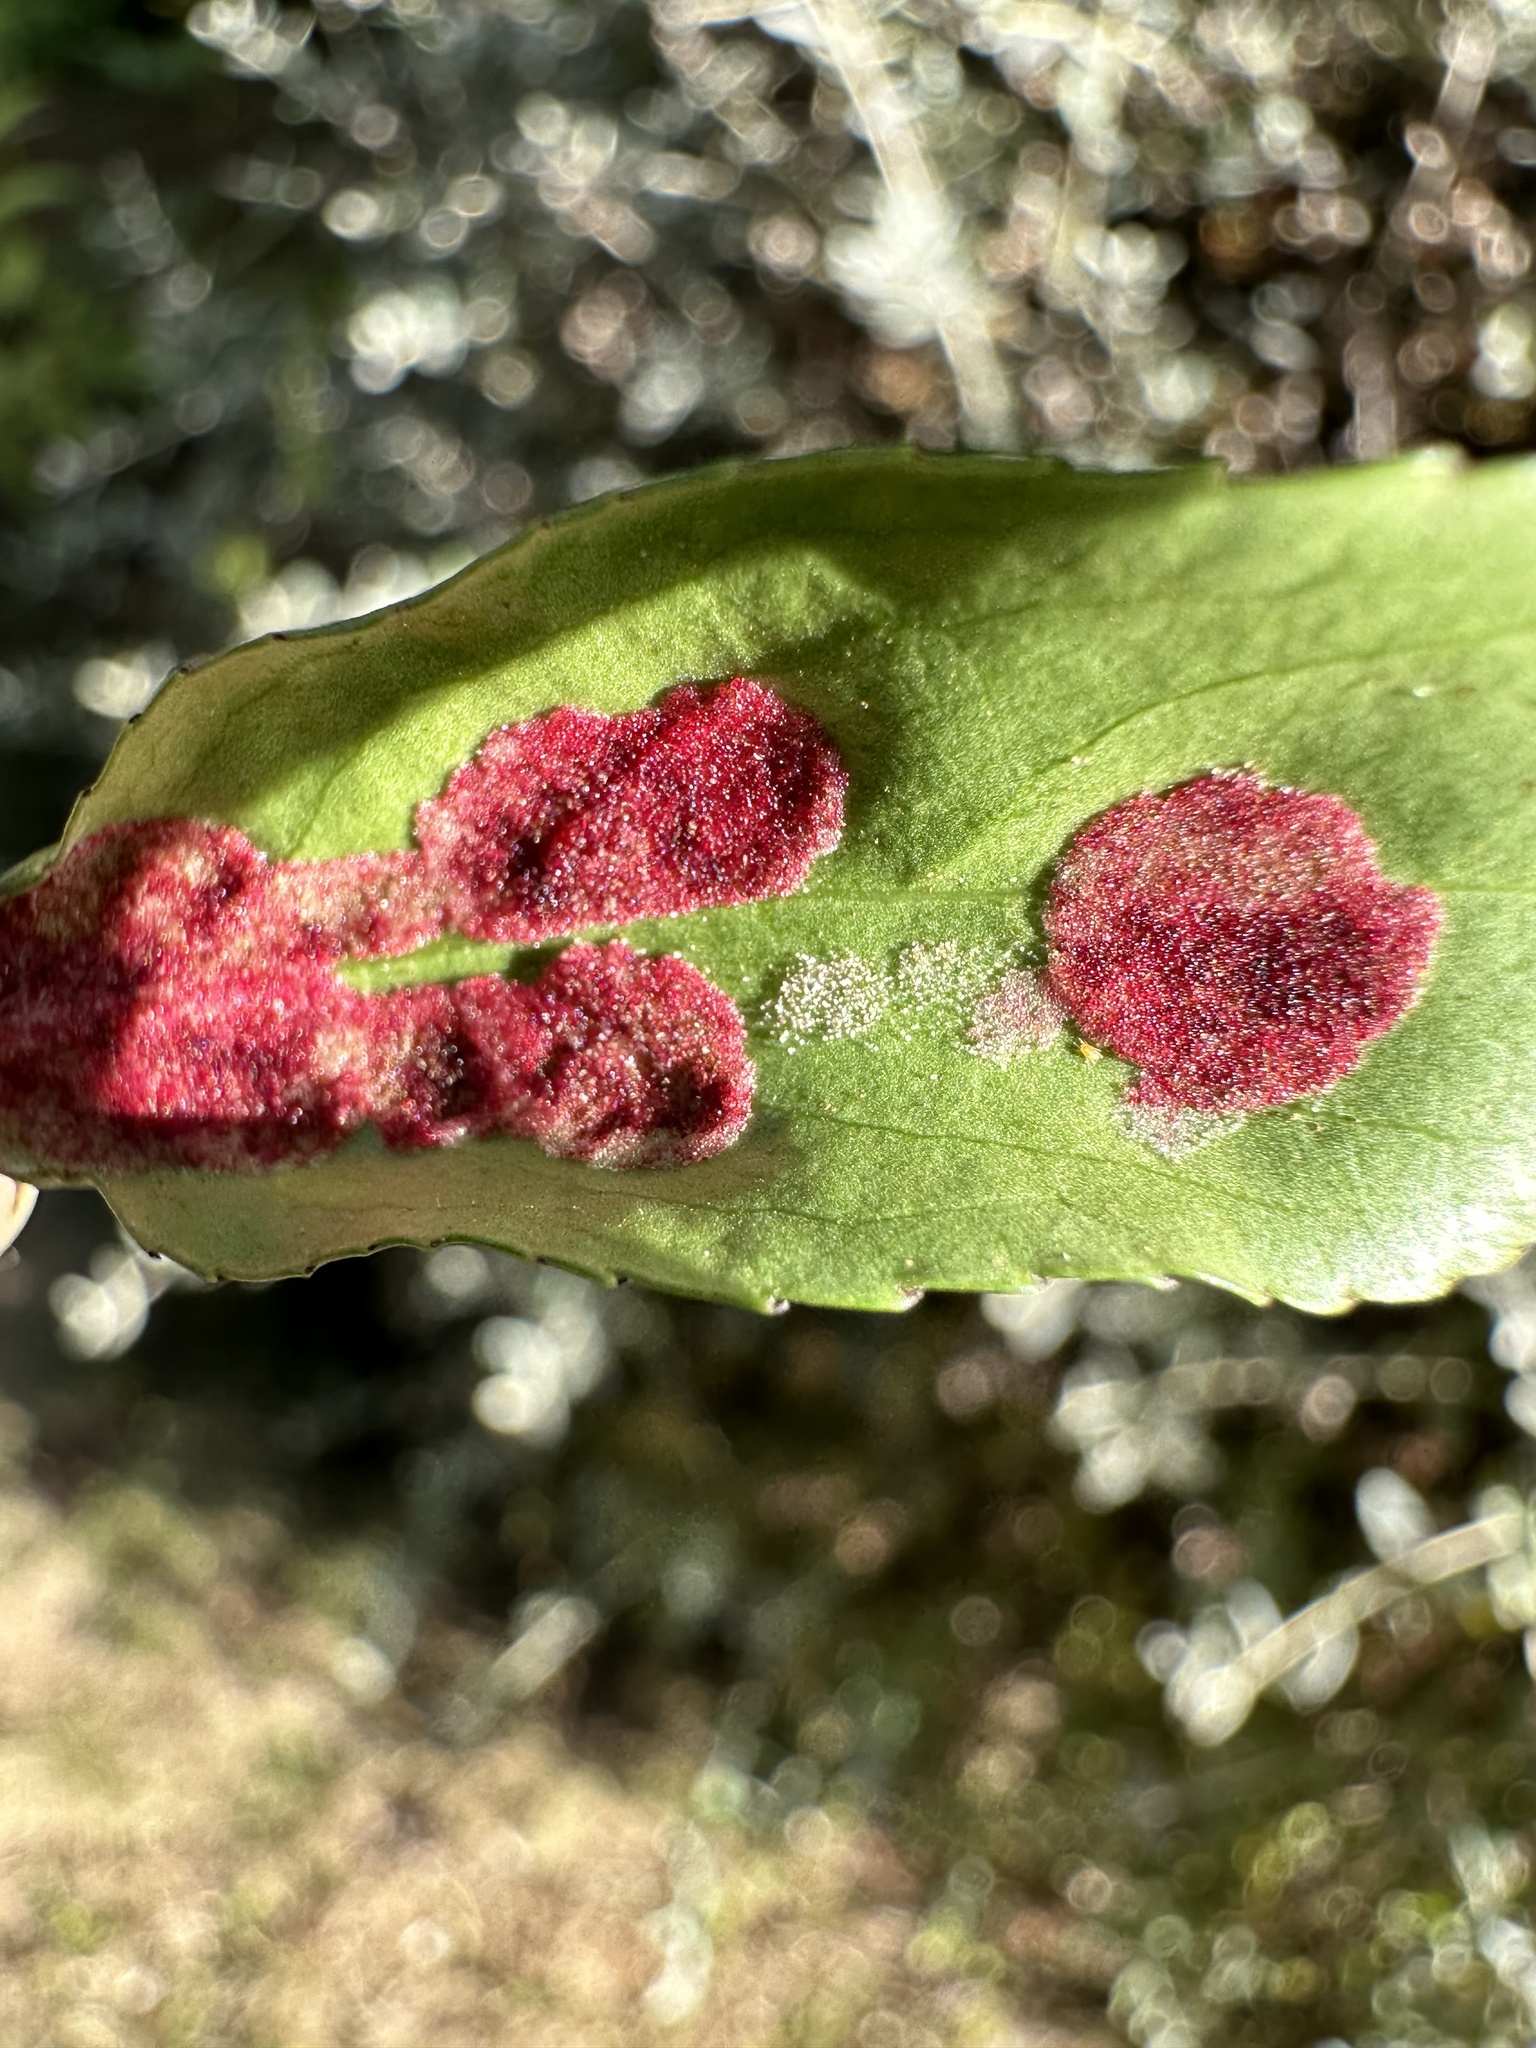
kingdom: Animalia
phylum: Arthropoda
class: Arachnida
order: Trombidiformes
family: Eriophyidae
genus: Eriophyes
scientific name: Eriophyes
